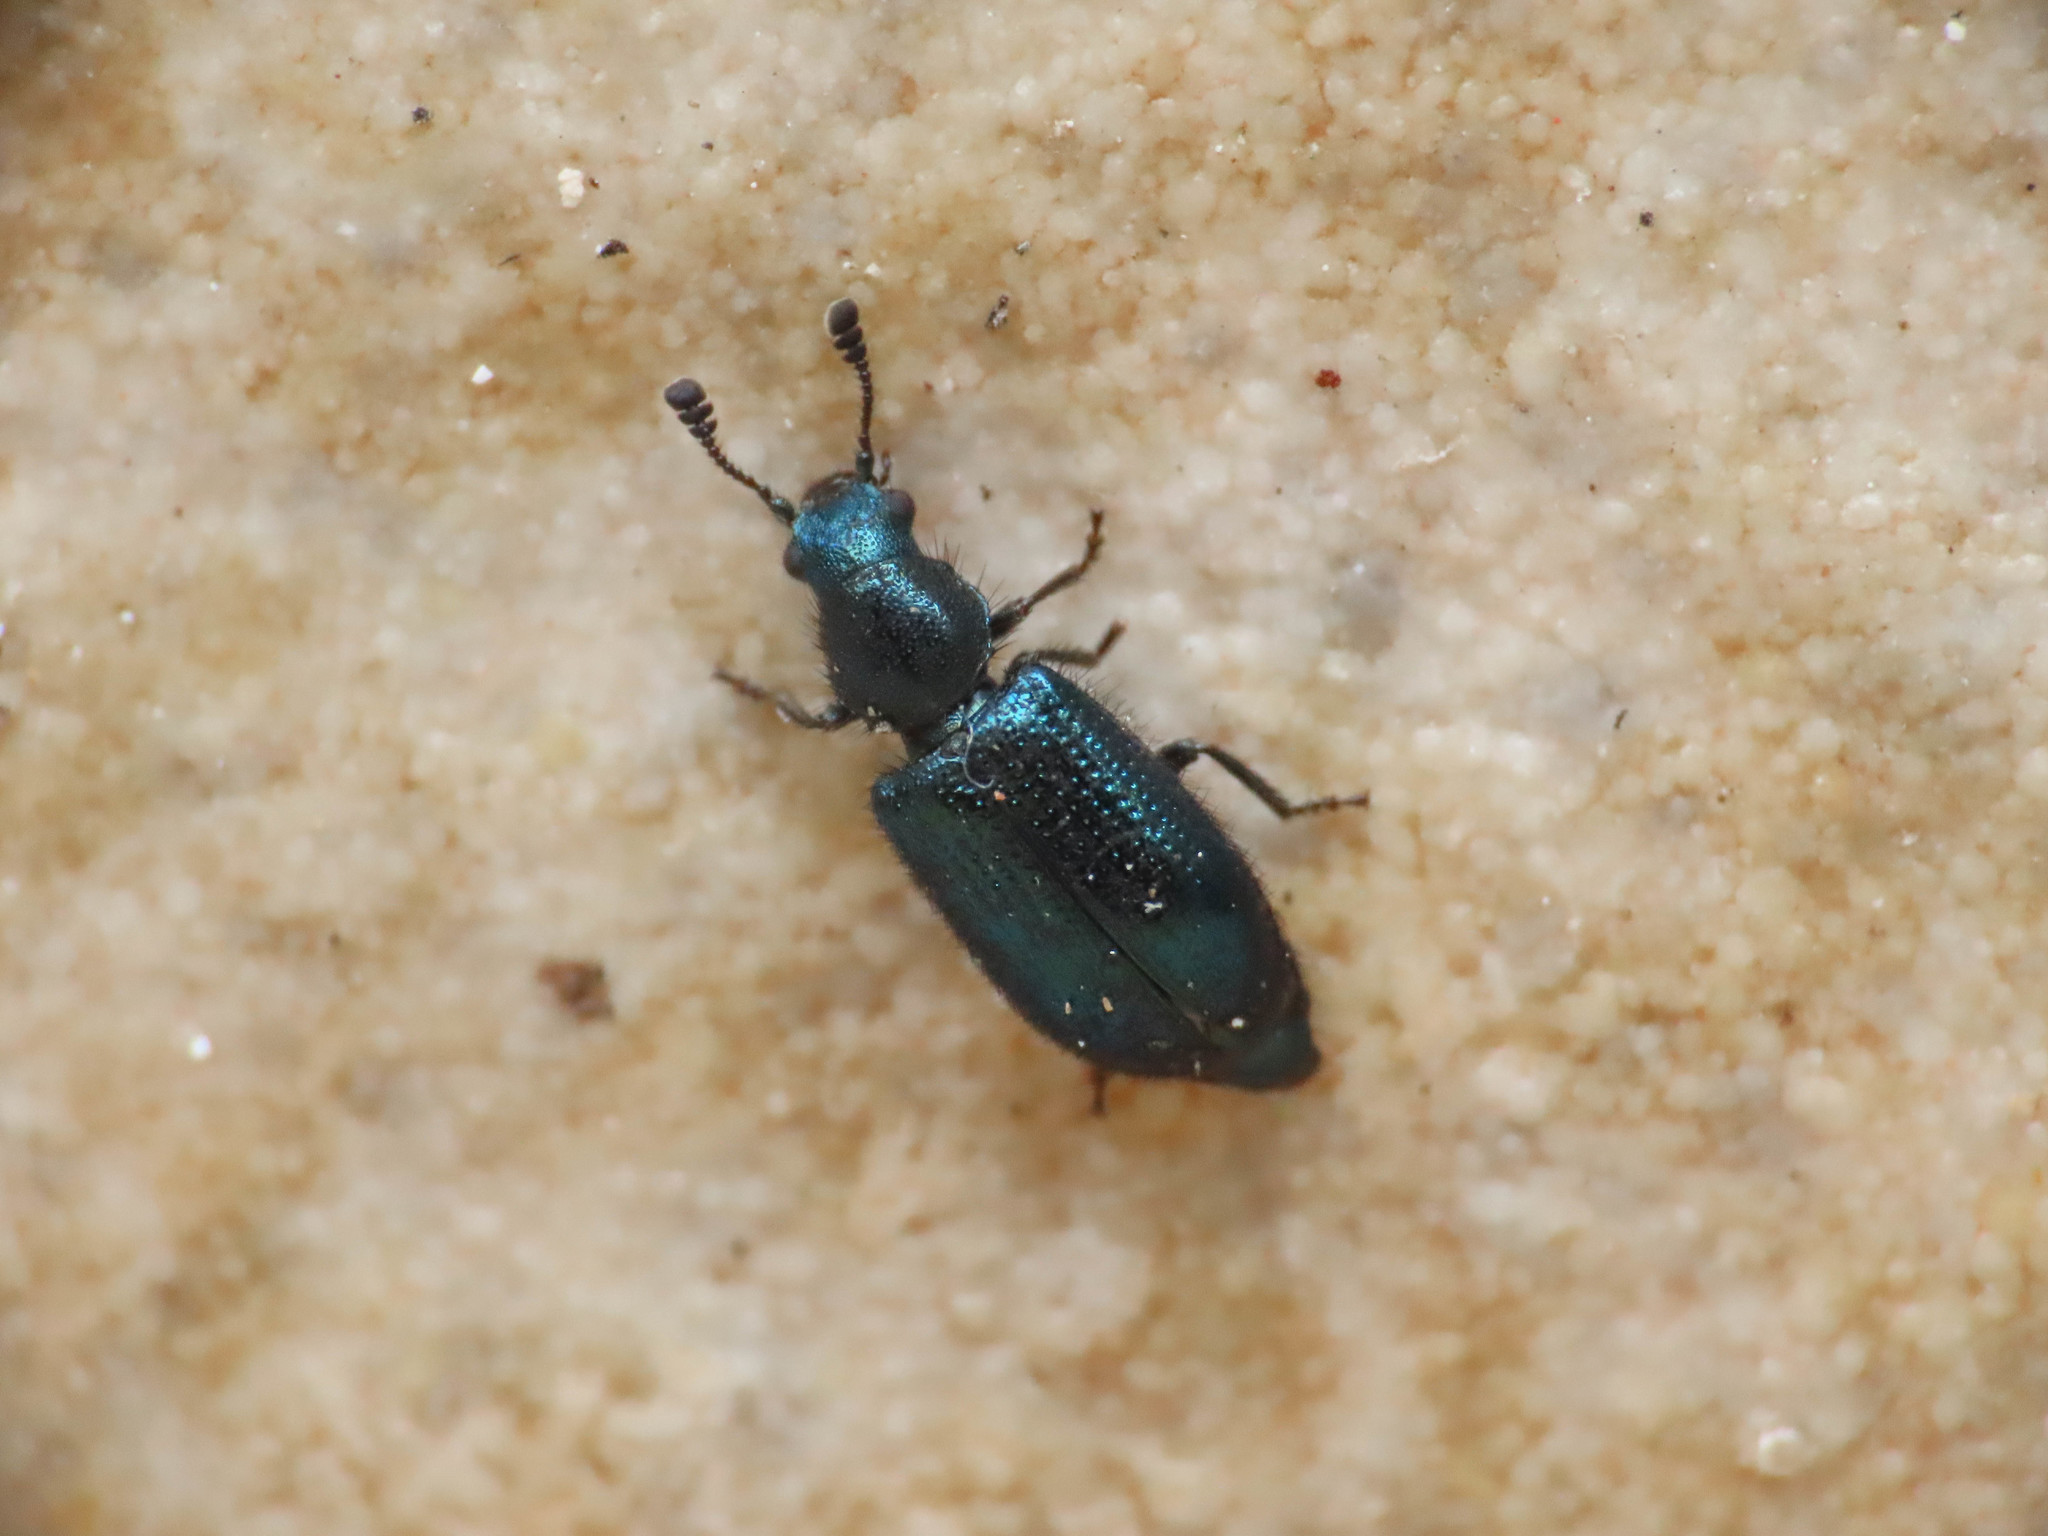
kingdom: Animalia
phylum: Arthropoda
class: Insecta
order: Coleoptera
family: Cleridae
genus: Necrobia
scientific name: Necrobia violacea
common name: Violet checkered beetle
